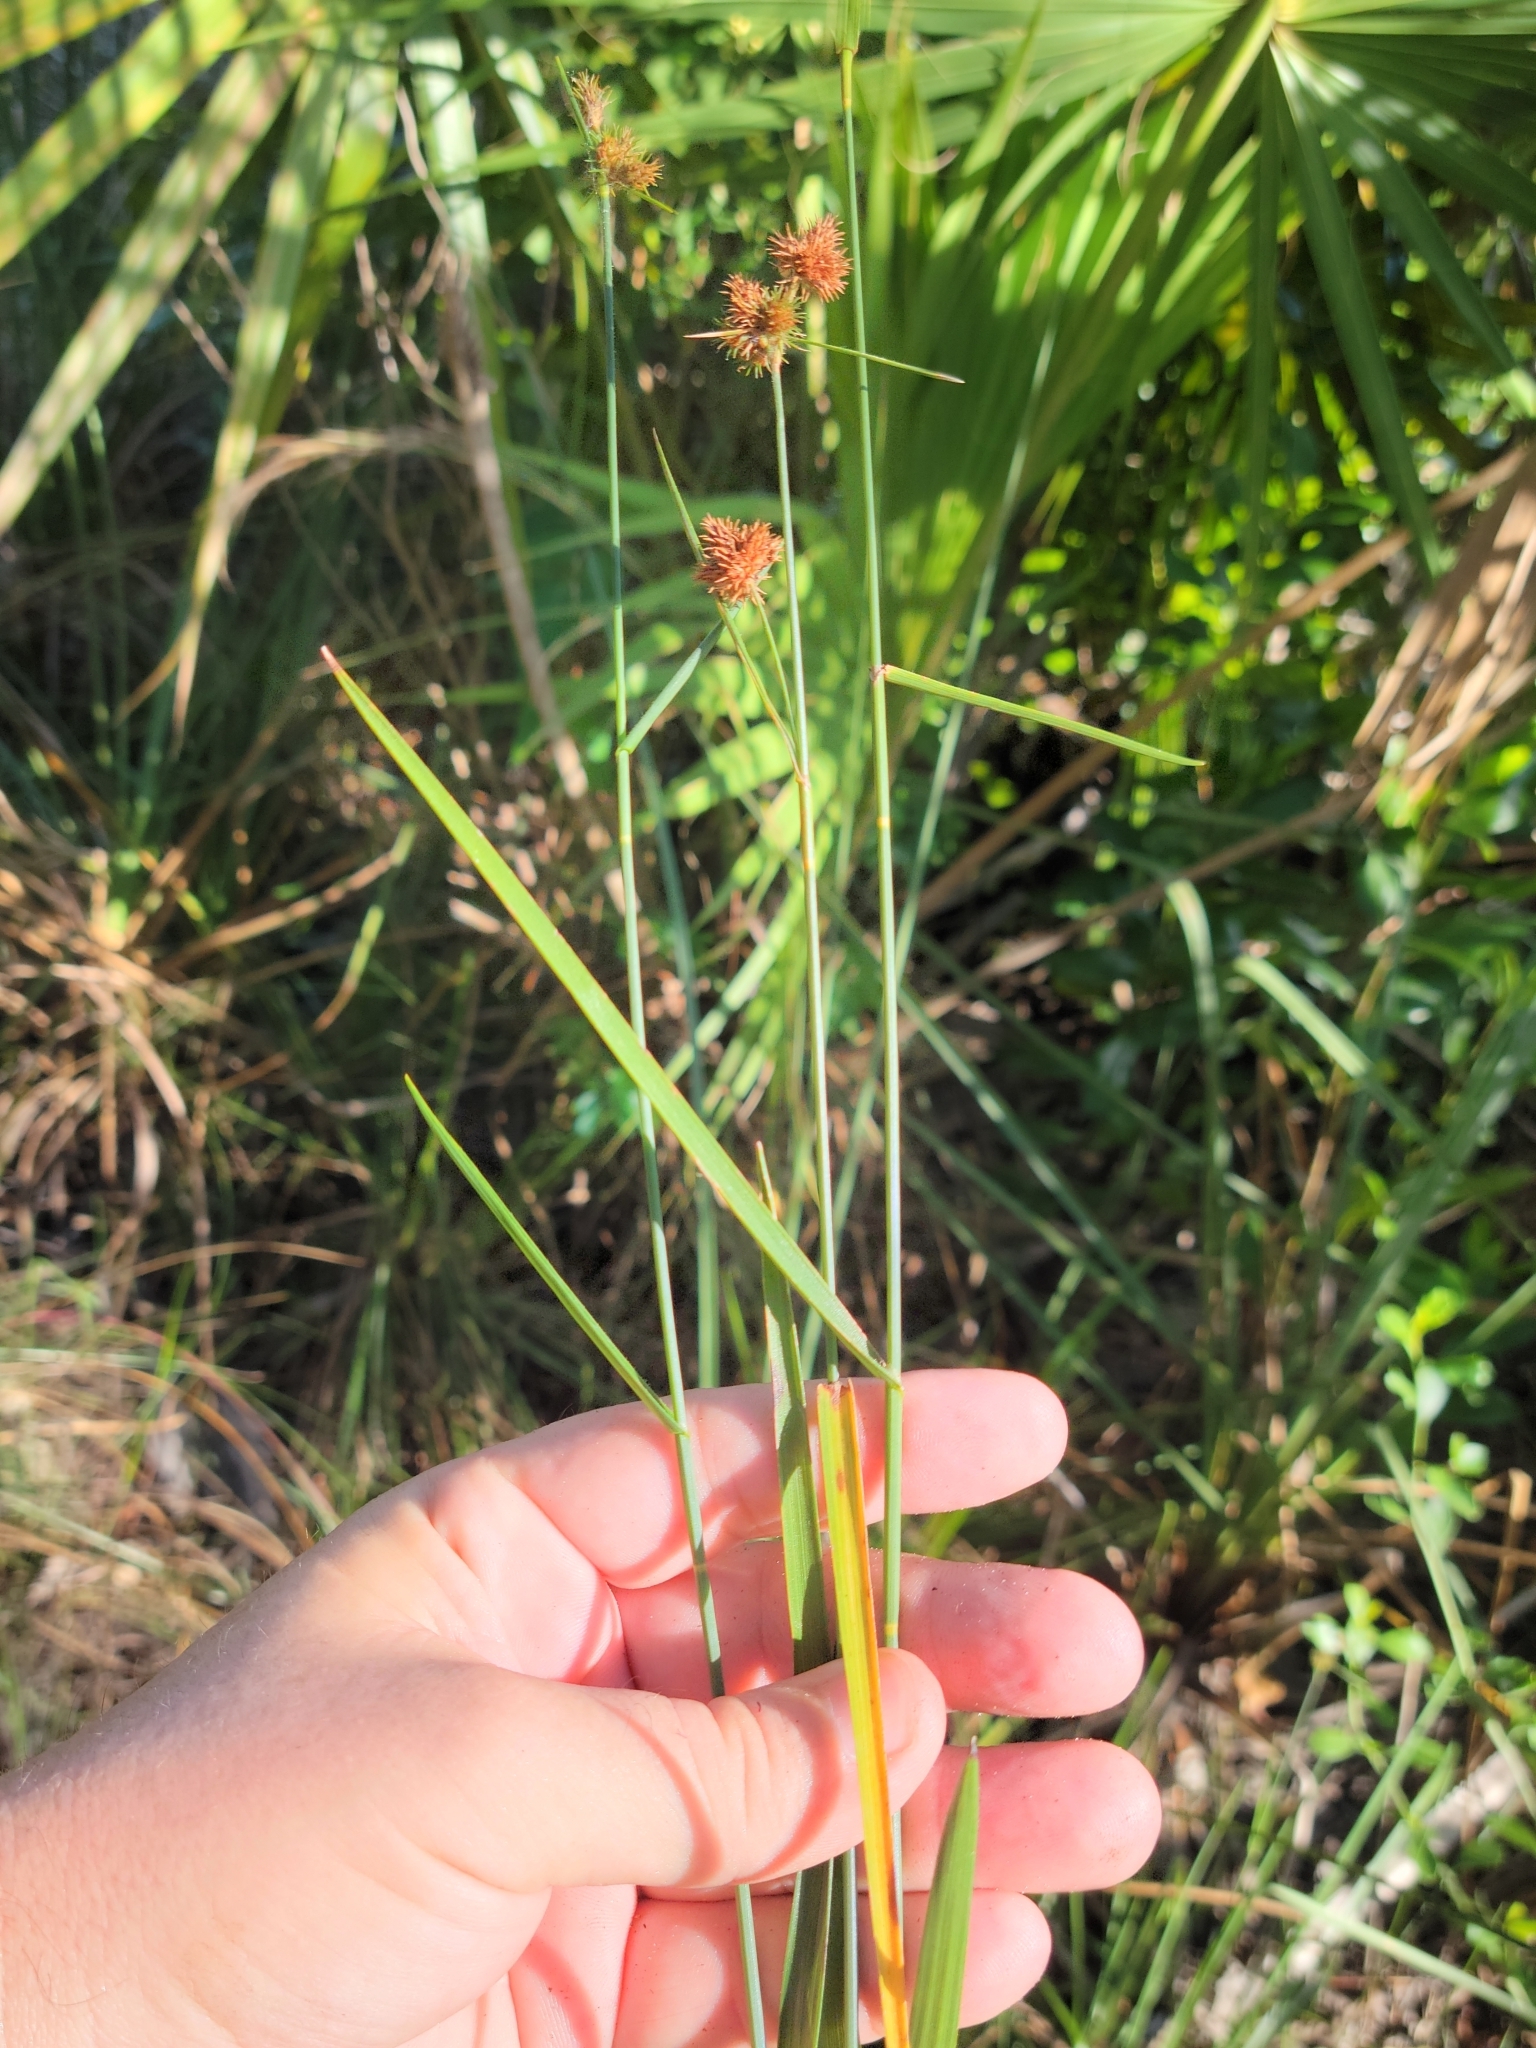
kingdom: Plantae
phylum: Tracheophyta
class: Liliopsida
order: Poales
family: Cyperaceae
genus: Fuirena
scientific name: Fuirena breviseta
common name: Saltmarsh umbrella sedge
